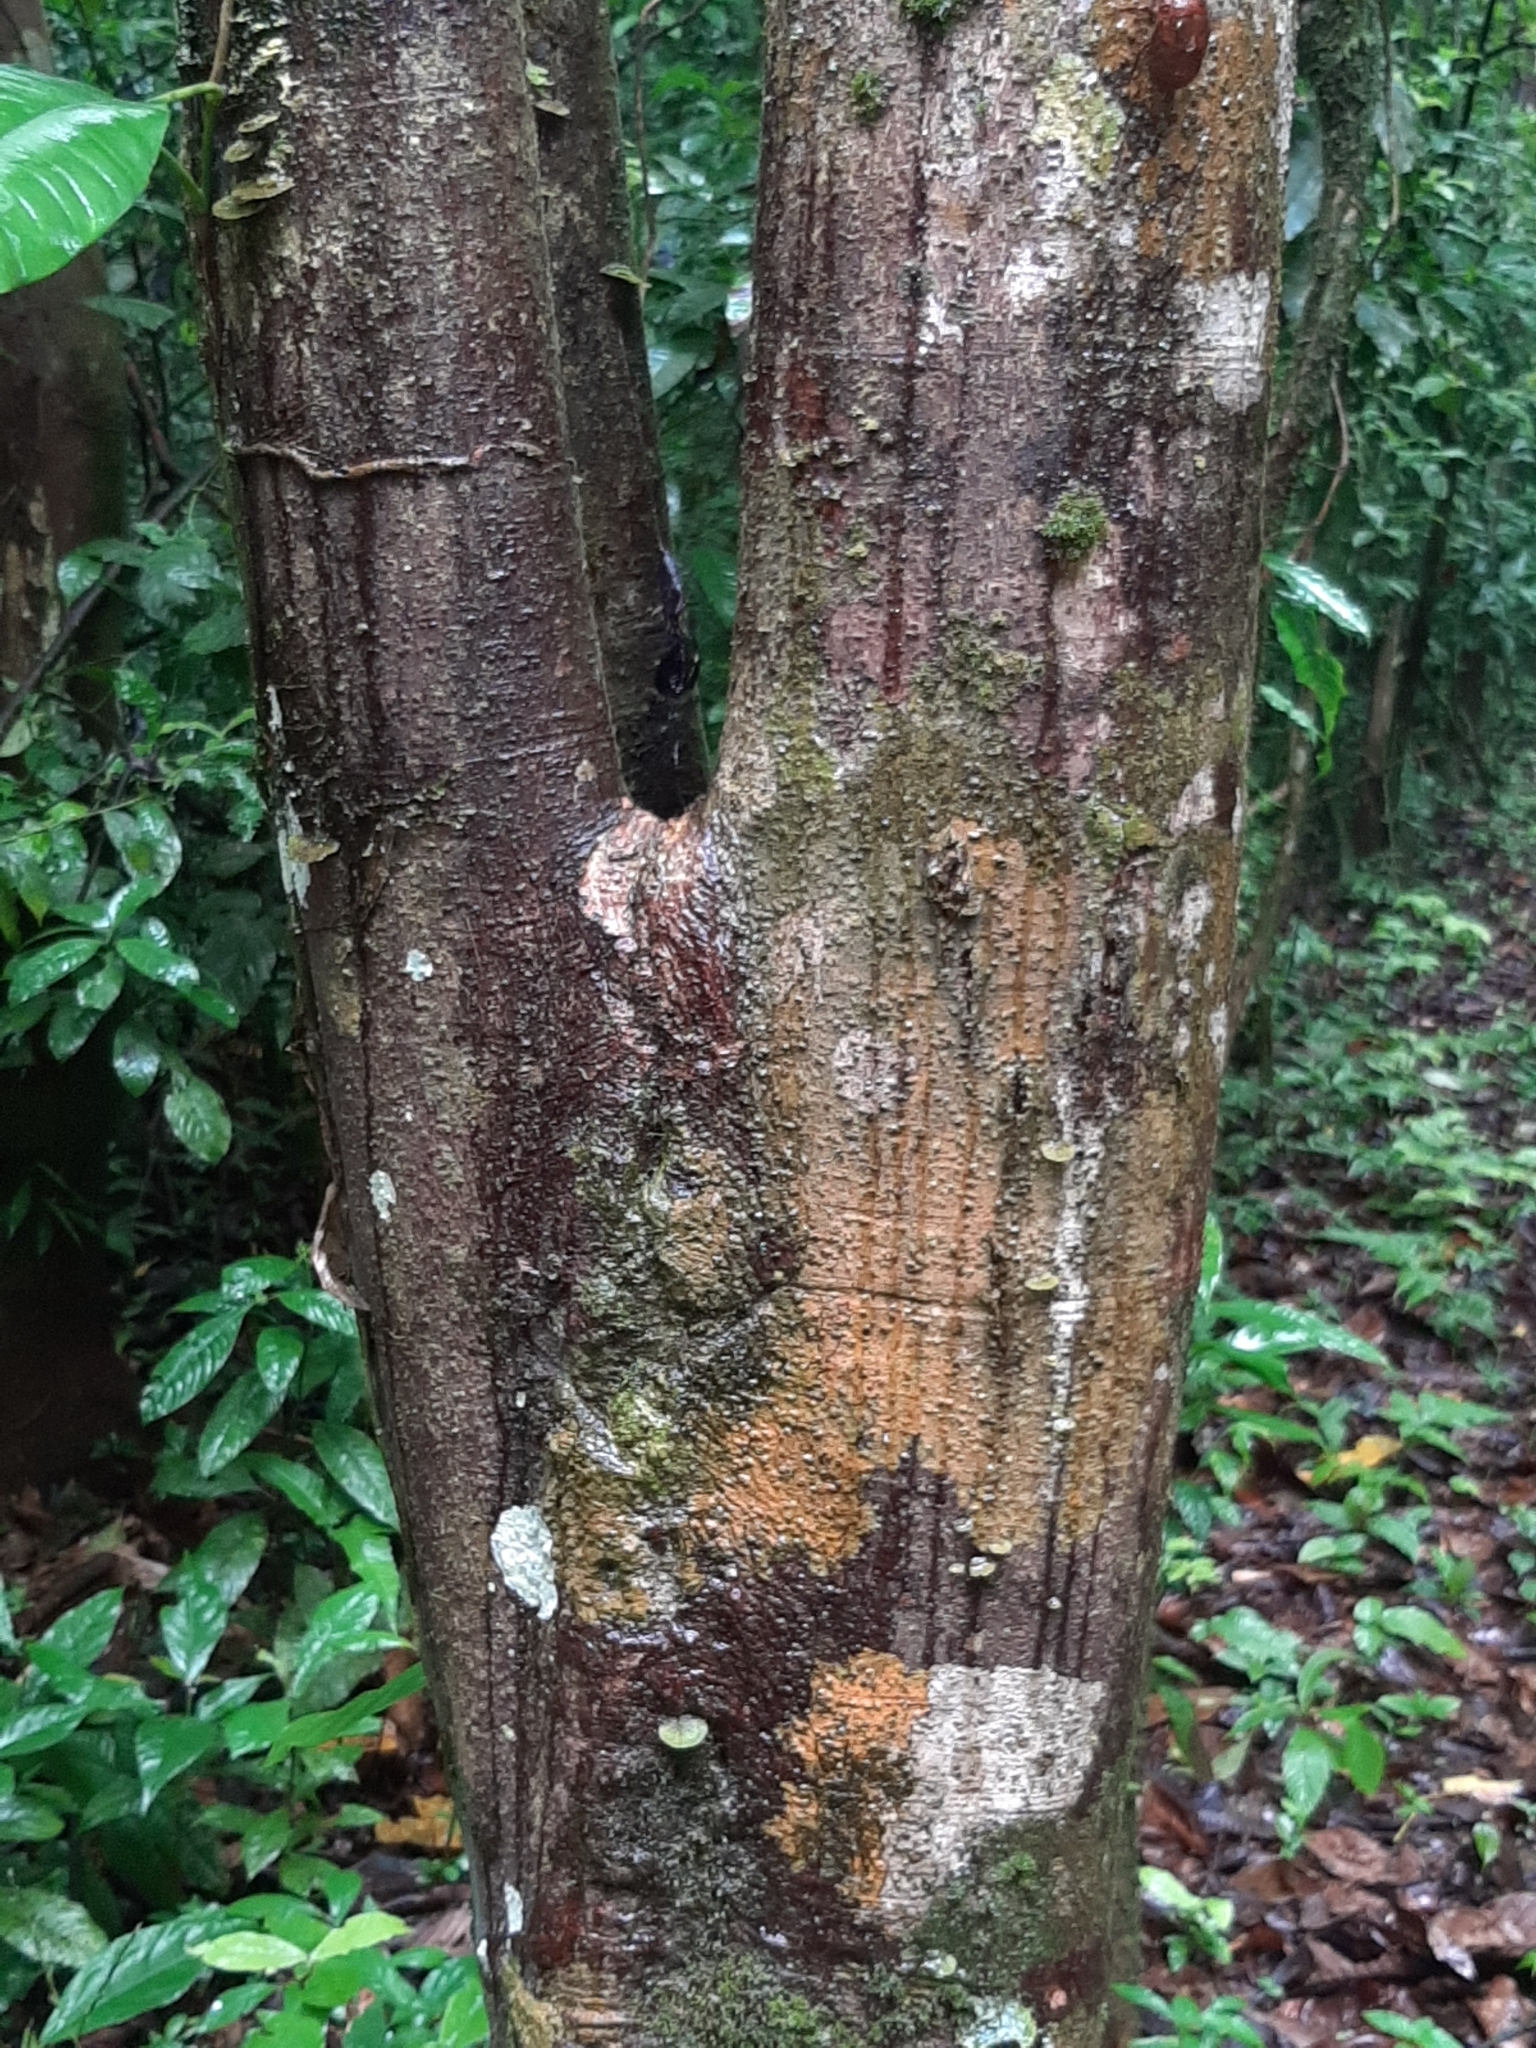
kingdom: Plantae
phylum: Tracheophyta
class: Magnoliopsida
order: Ericales
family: Lecythidaceae
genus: Gustavia
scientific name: Gustavia superba
